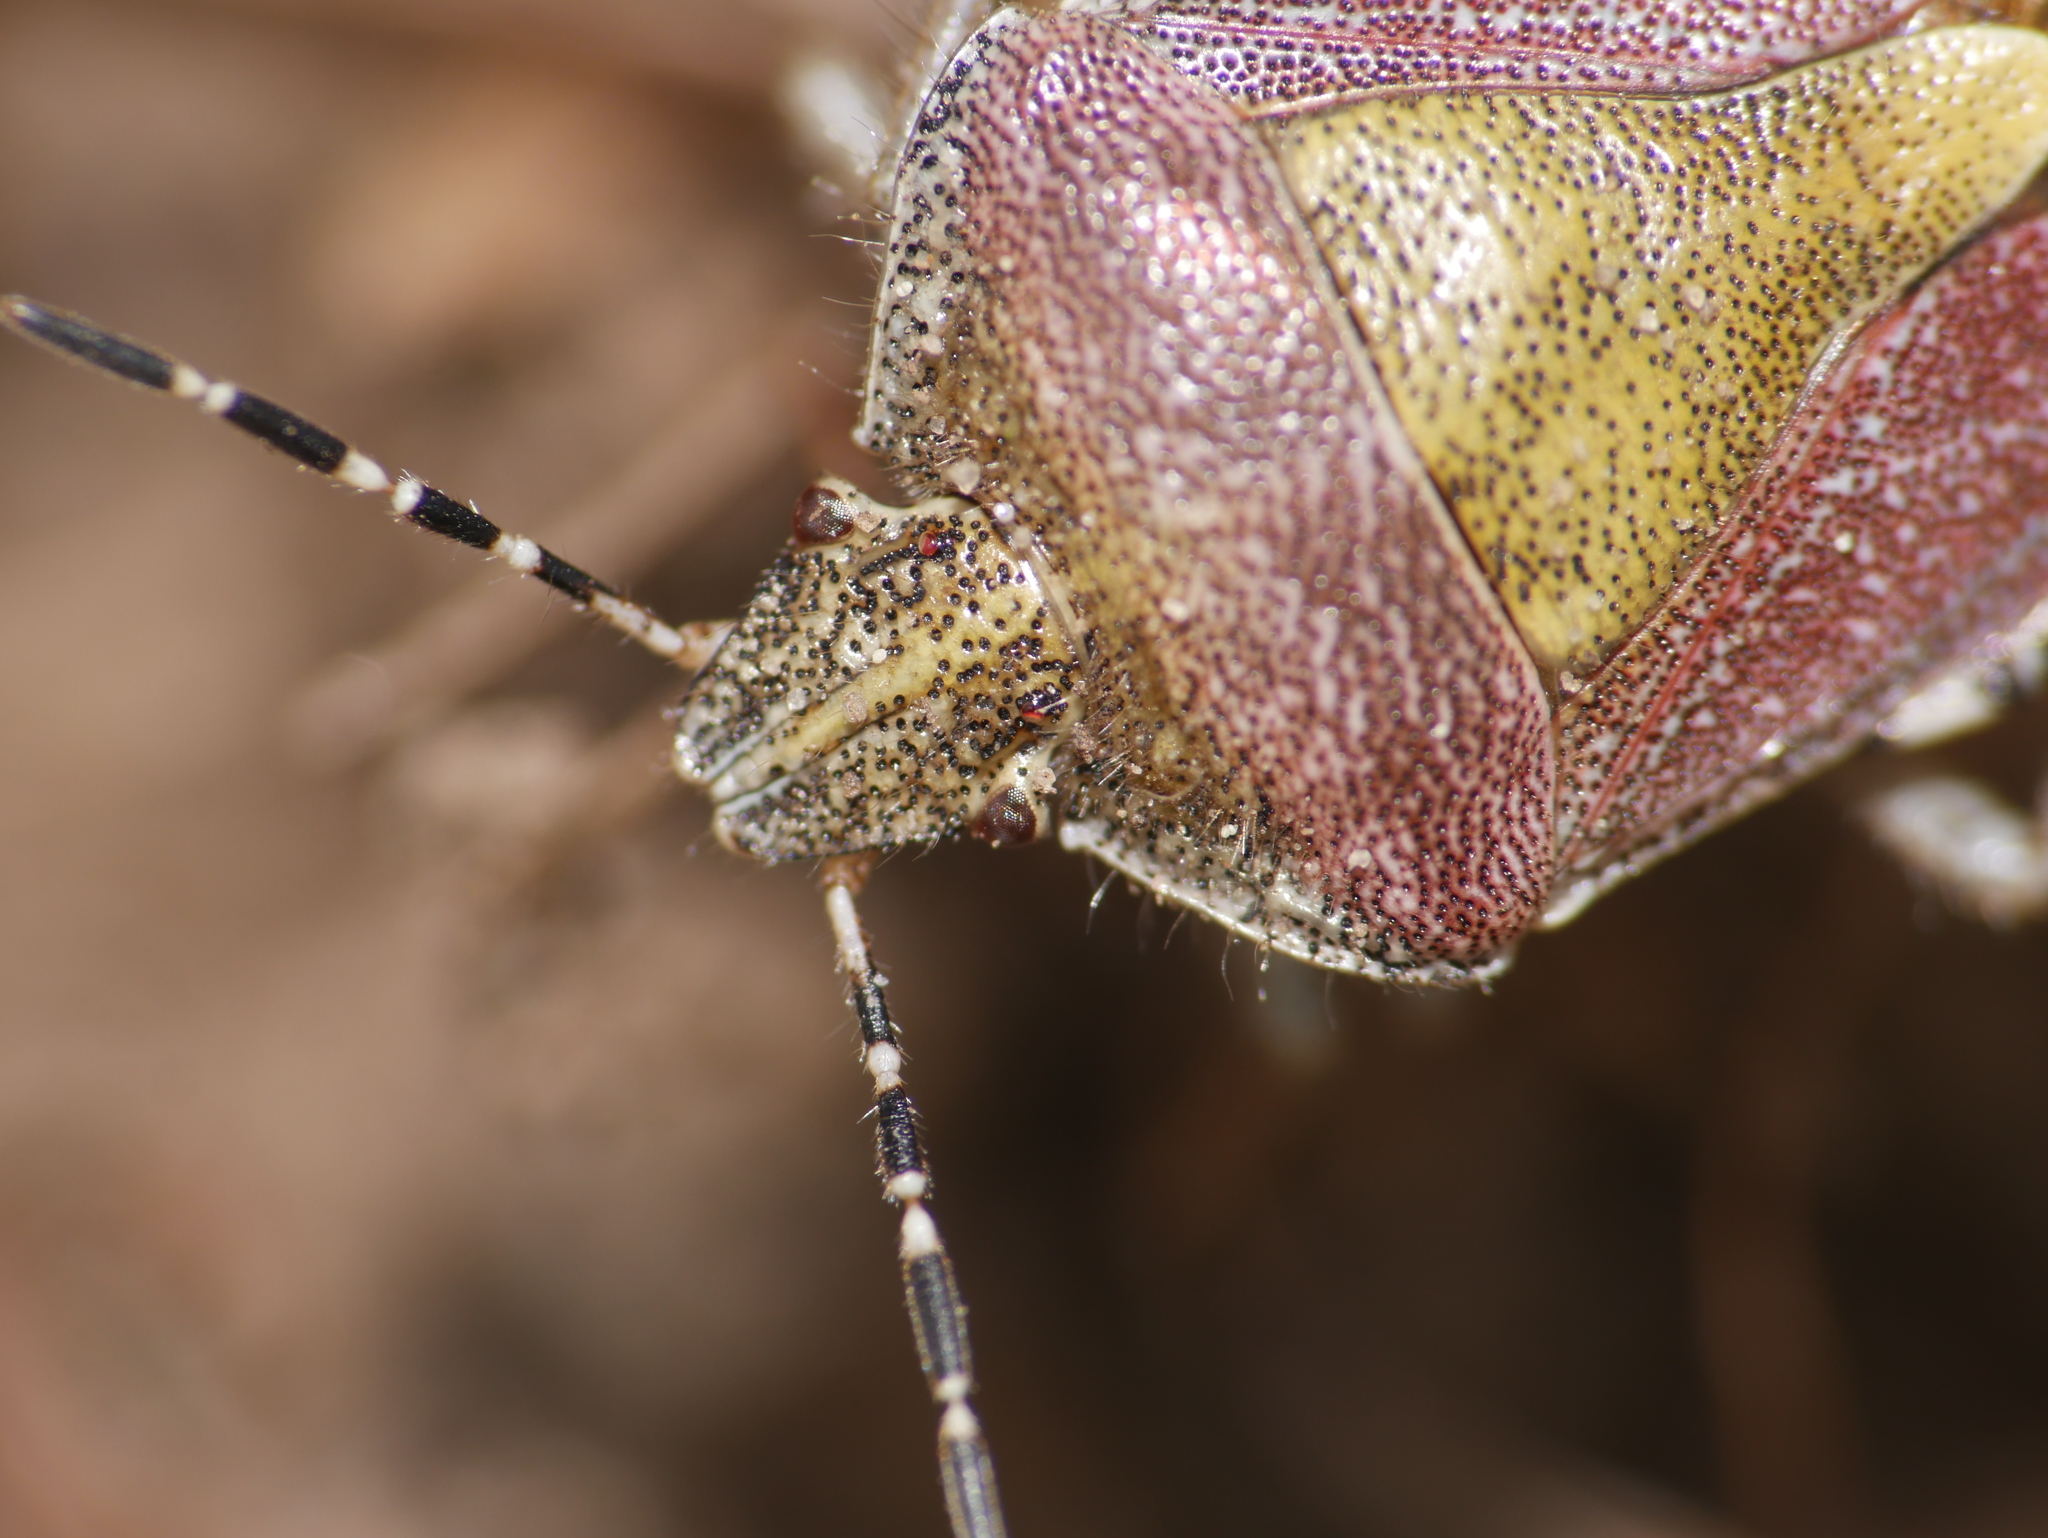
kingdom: Animalia
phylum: Arthropoda
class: Insecta
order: Hemiptera
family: Pentatomidae
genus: Dolycoris
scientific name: Dolycoris baccarum
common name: Sloe bug
